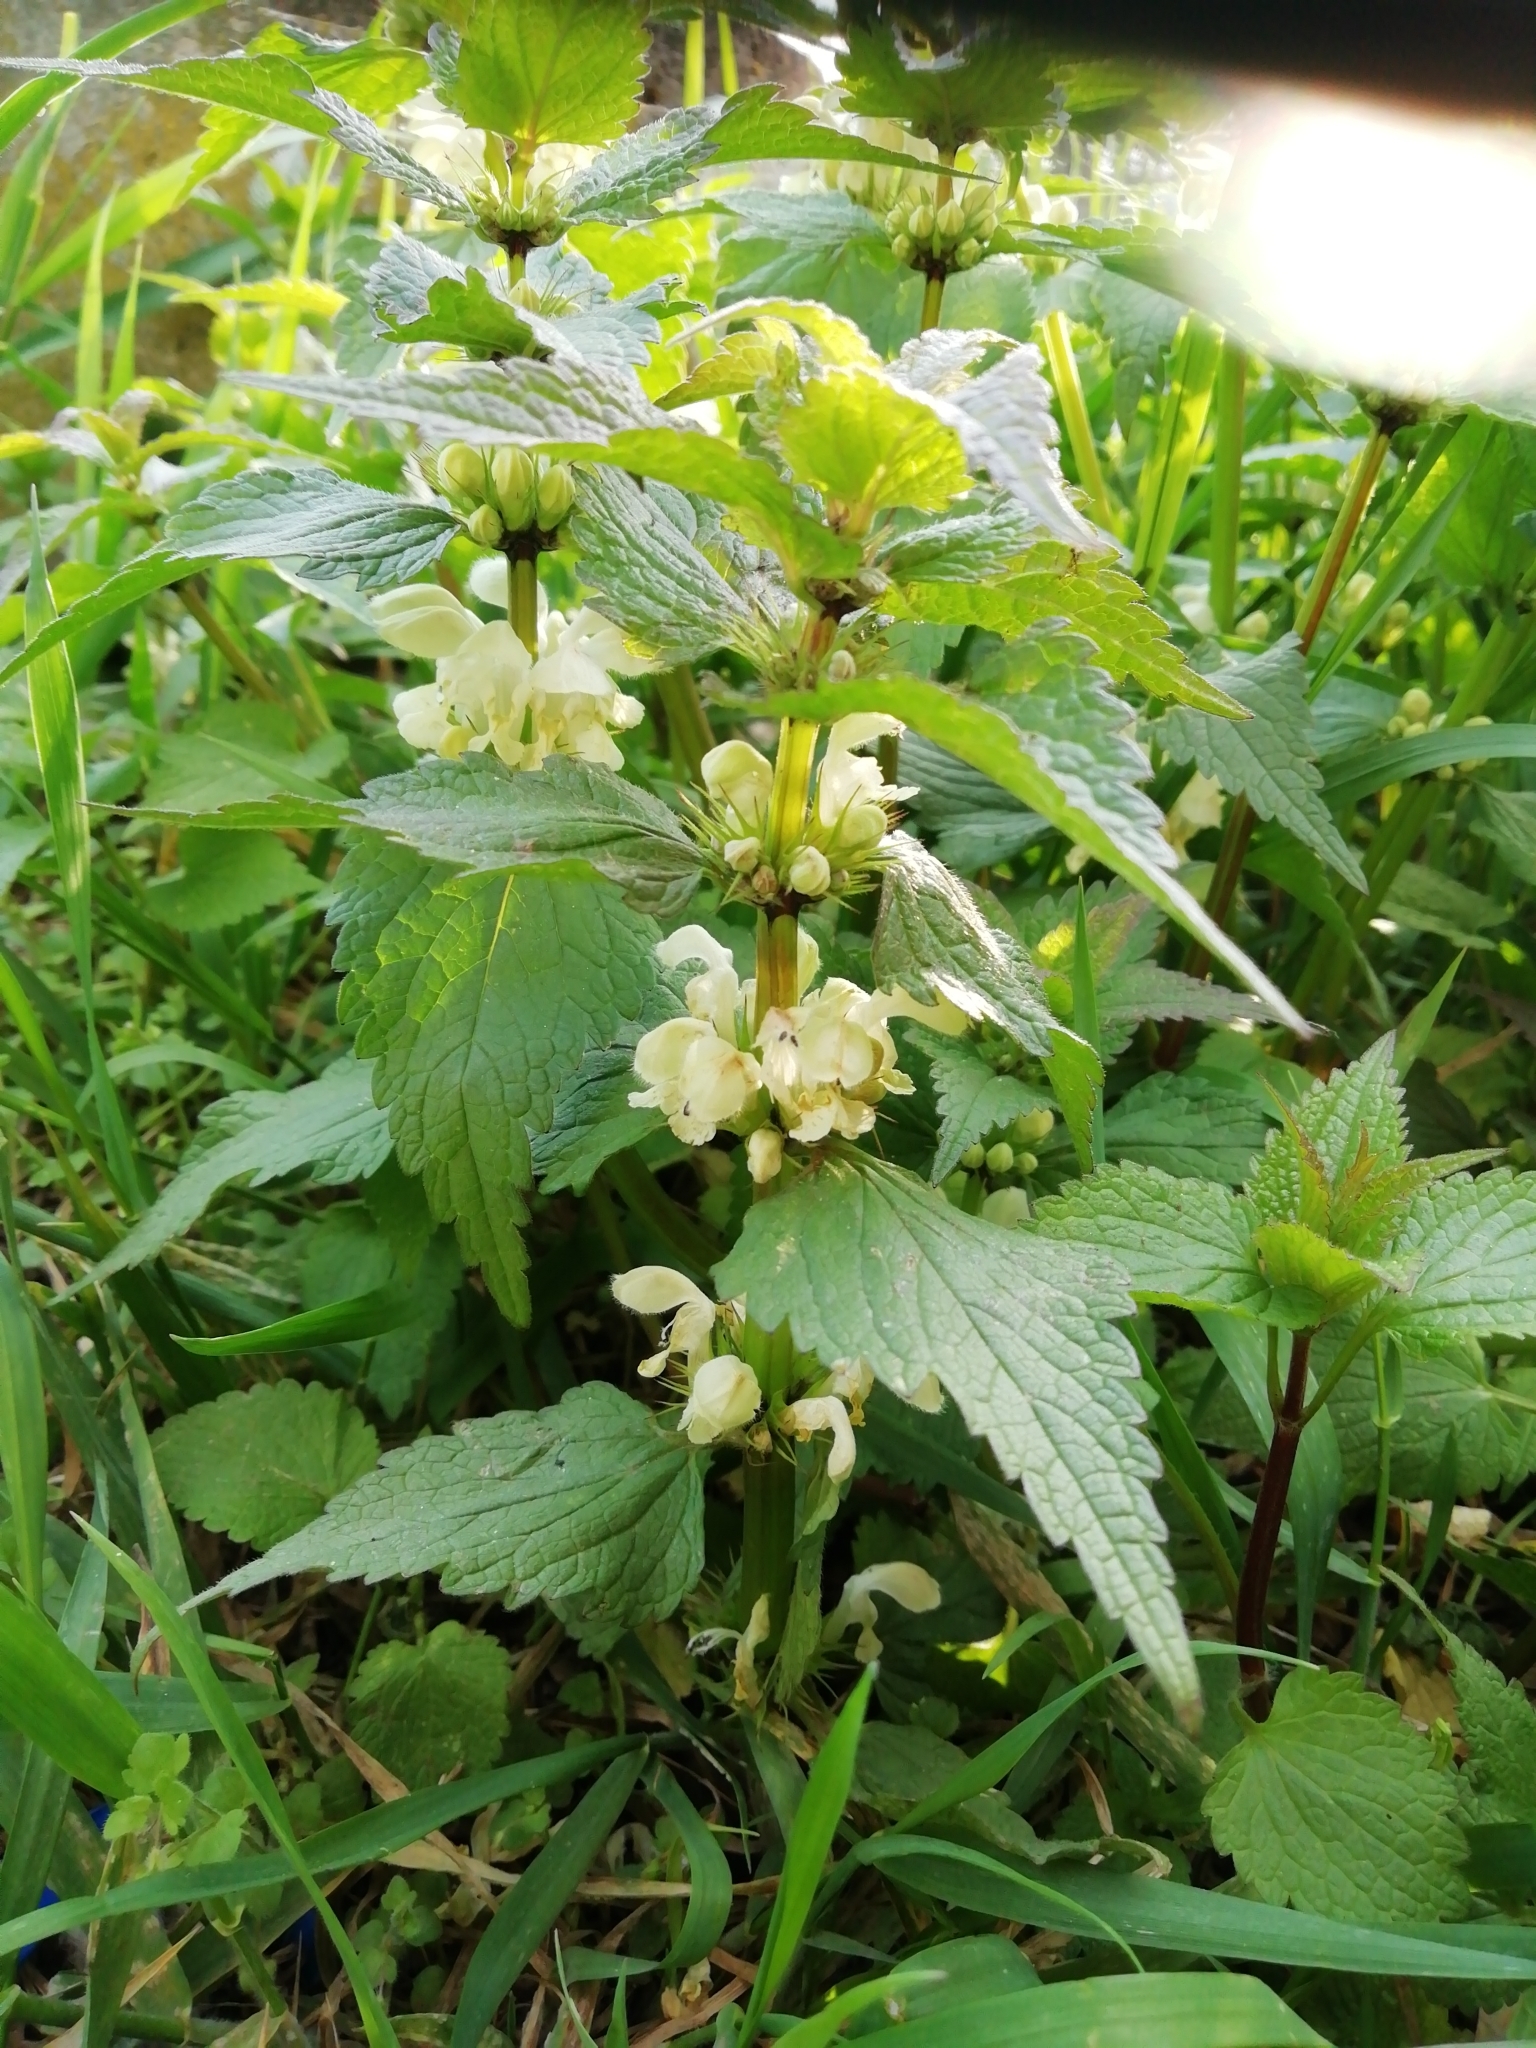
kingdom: Plantae
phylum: Tracheophyta
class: Magnoliopsida
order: Lamiales
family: Lamiaceae
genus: Lamium
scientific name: Lamium album
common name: White dead-nettle
